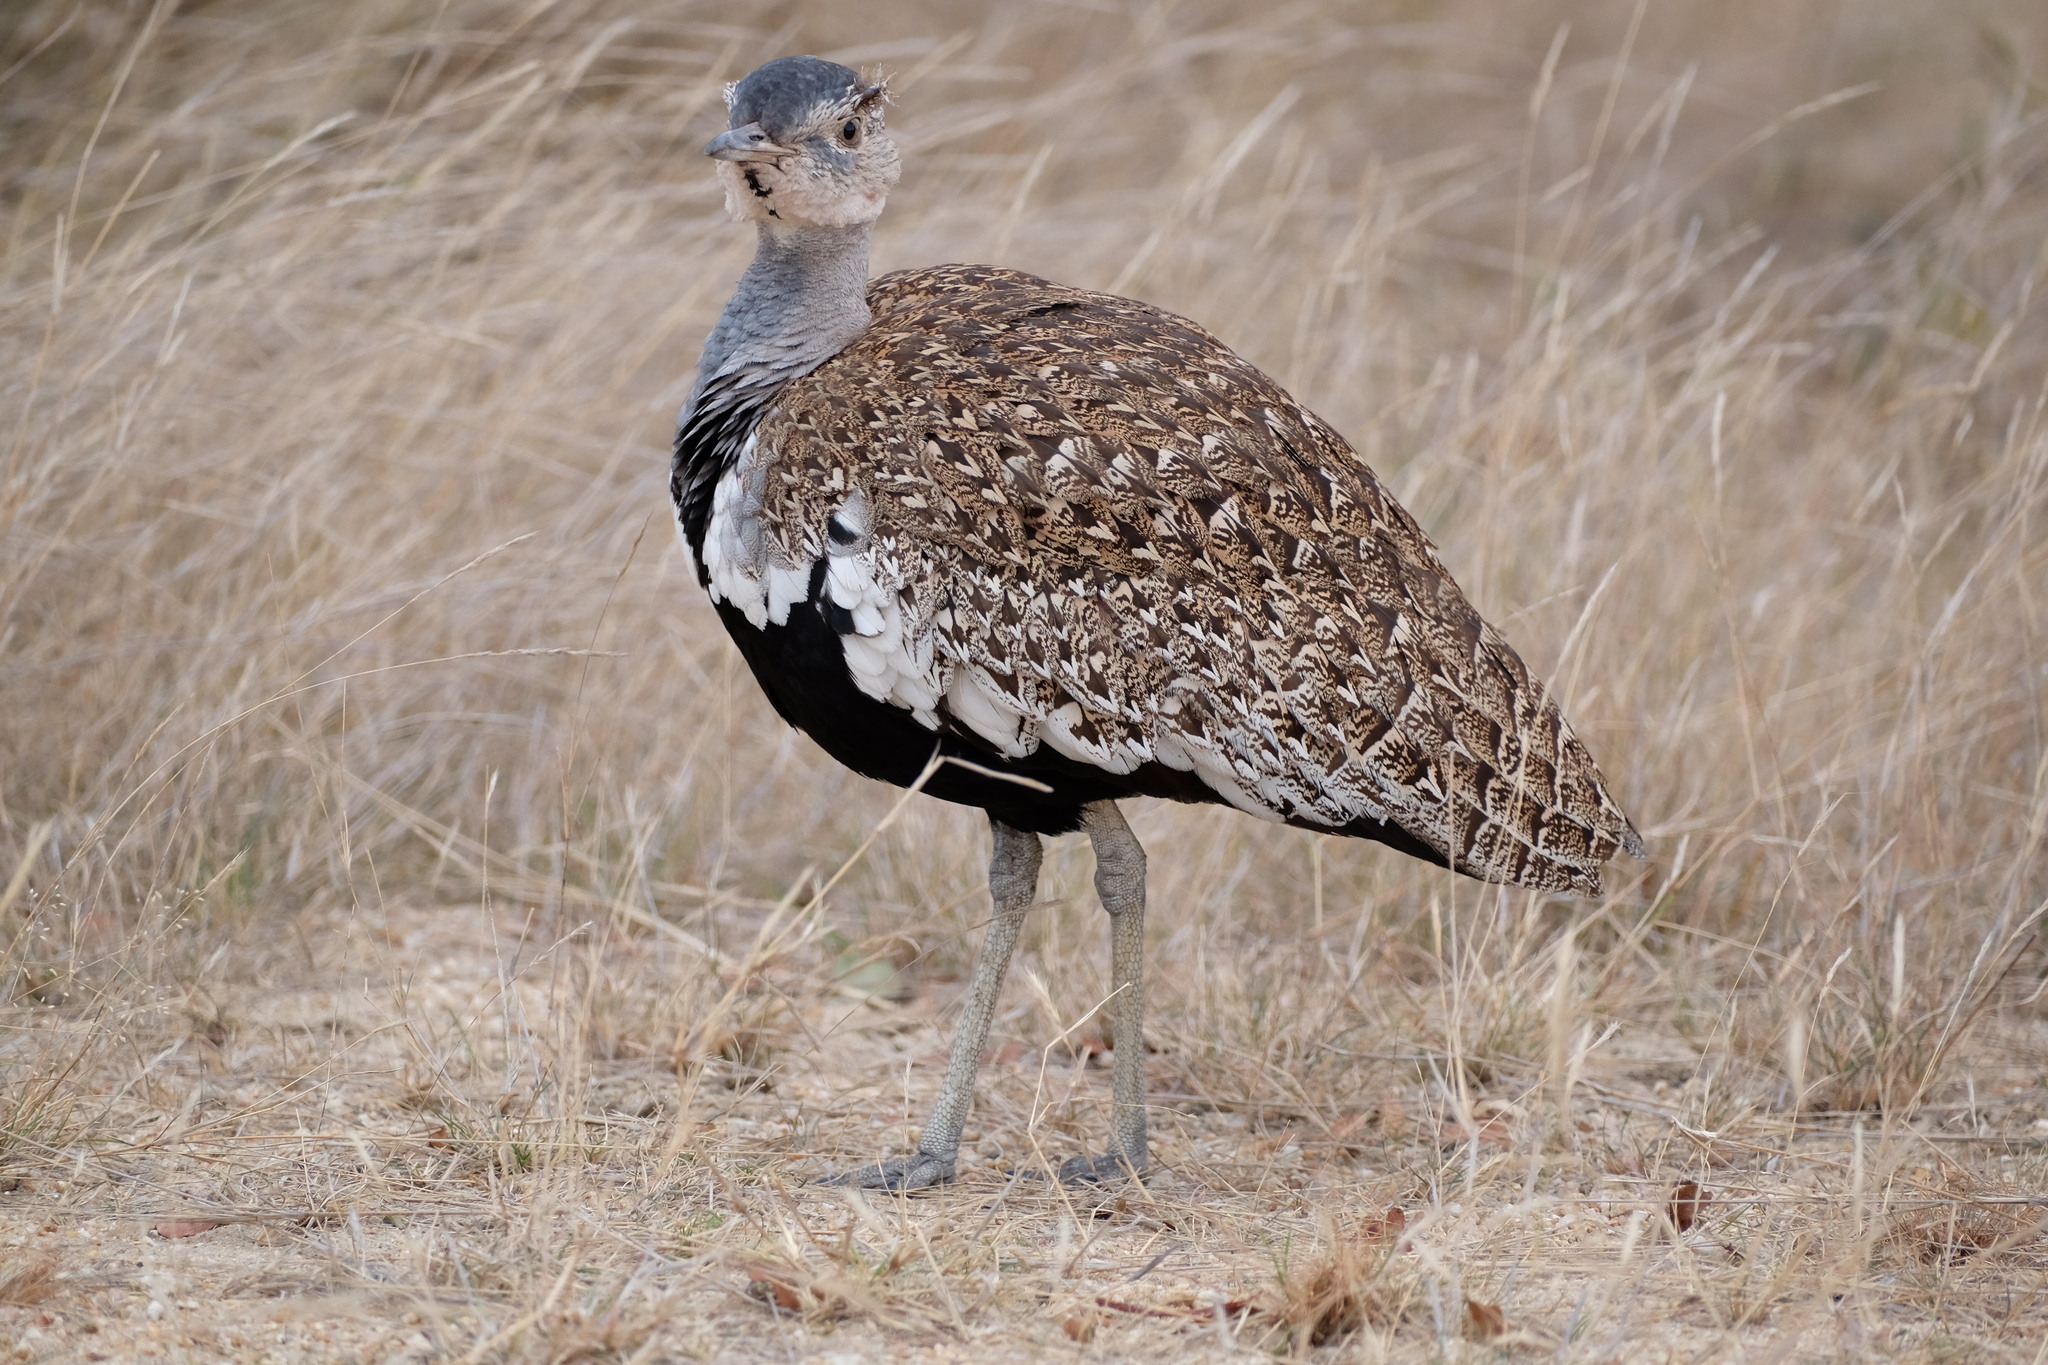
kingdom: Animalia
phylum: Chordata
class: Aves
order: Otidiformes
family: Otididae
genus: Lophotis
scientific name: Lophotis ruficrista
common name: Red-crested korhaan
